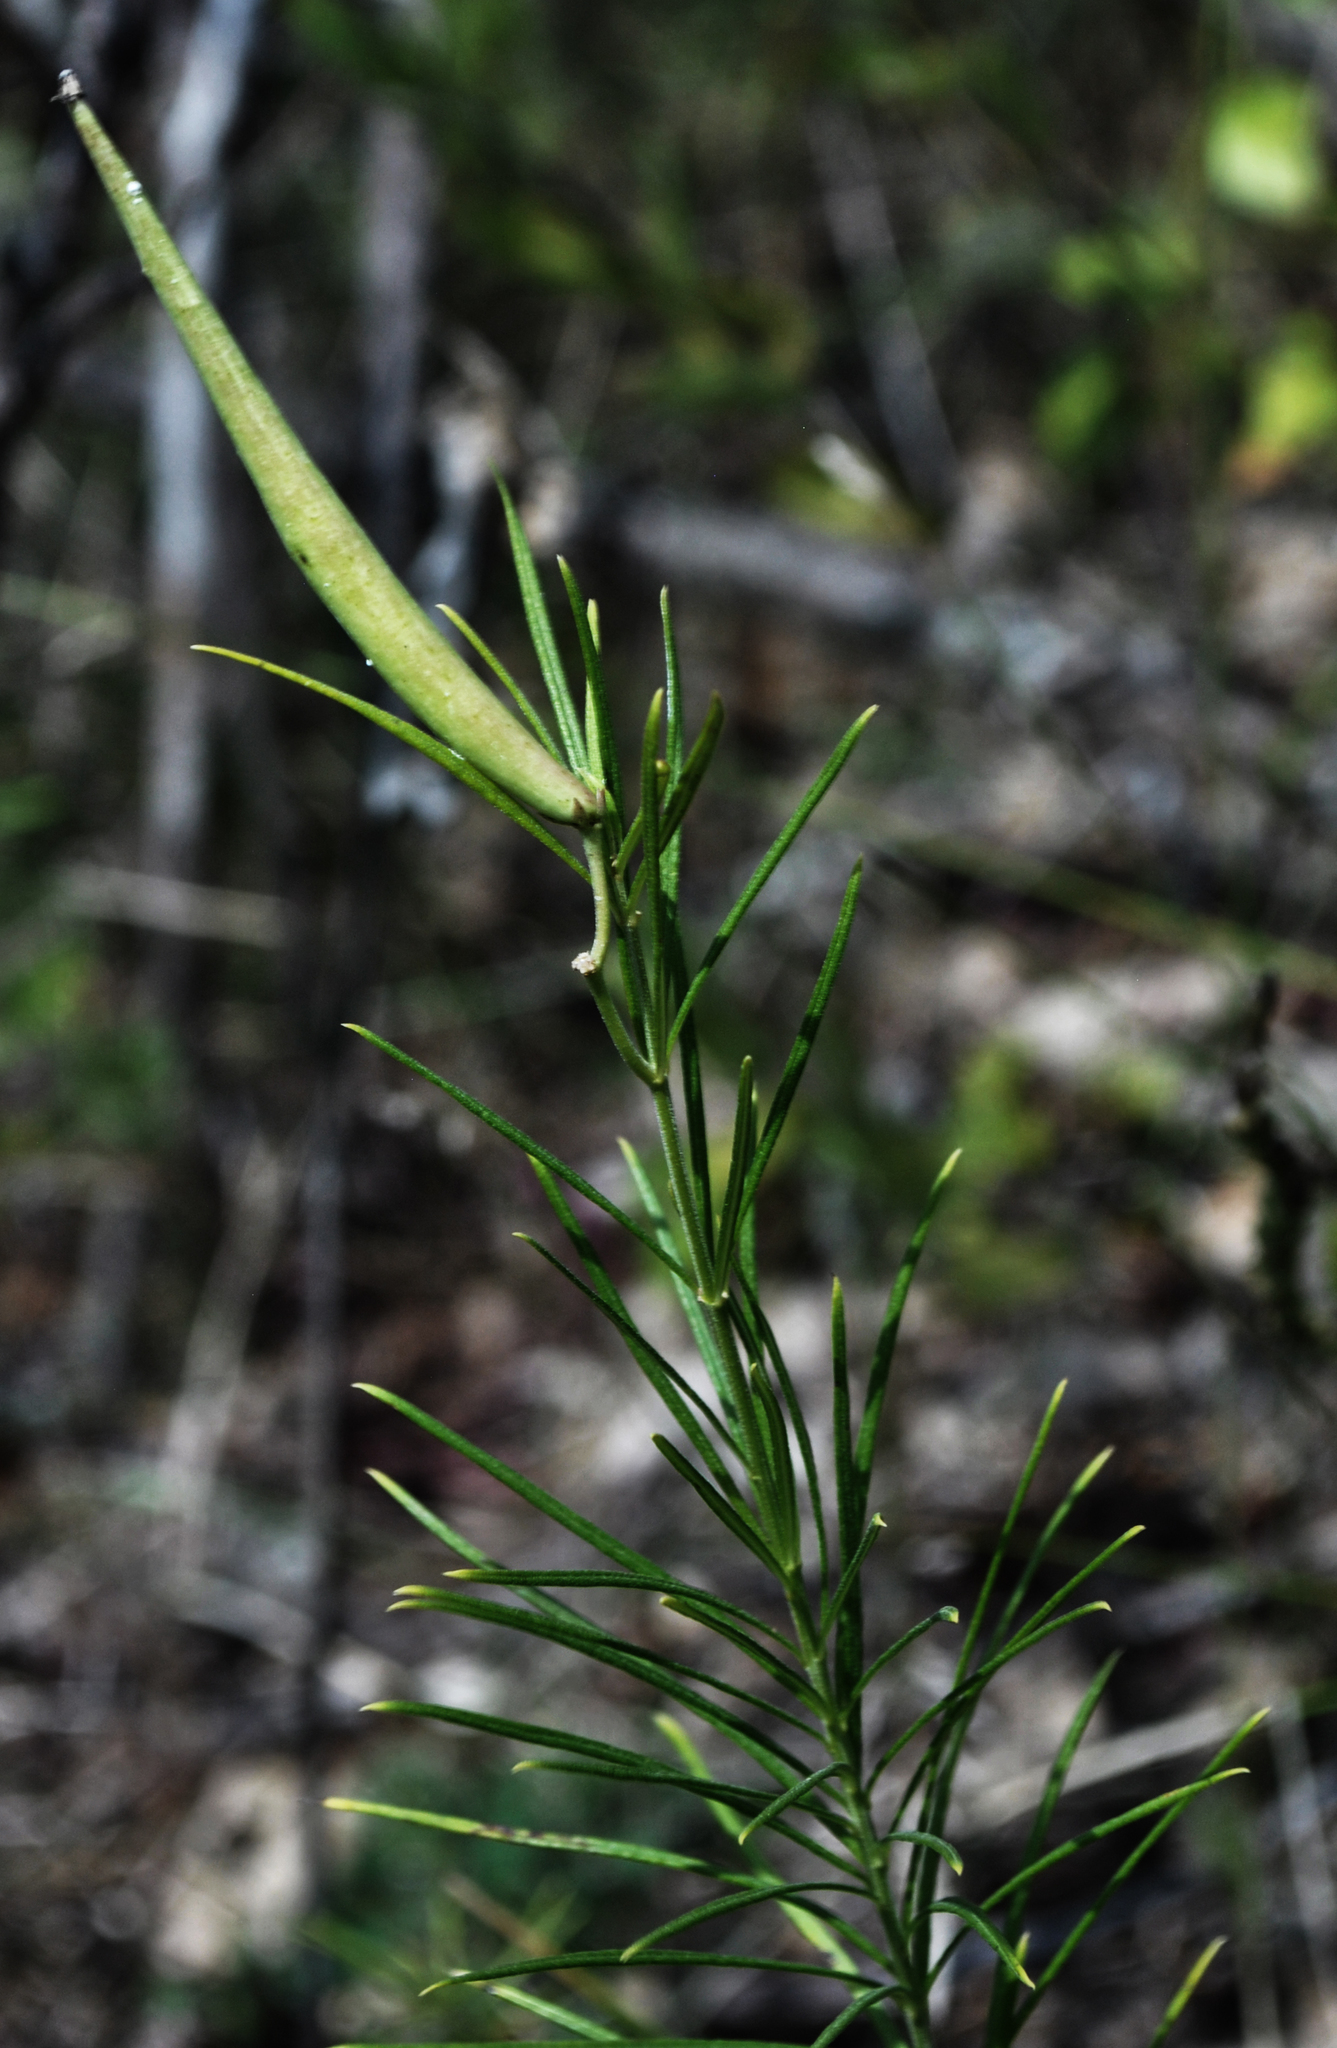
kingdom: Plantae
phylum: Tracheophyta
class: Magnoliopsida
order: Gentianales
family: Apocynaceae
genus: Asclepias
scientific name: Asclepias verticillata
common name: Eastern whorled milkweed
